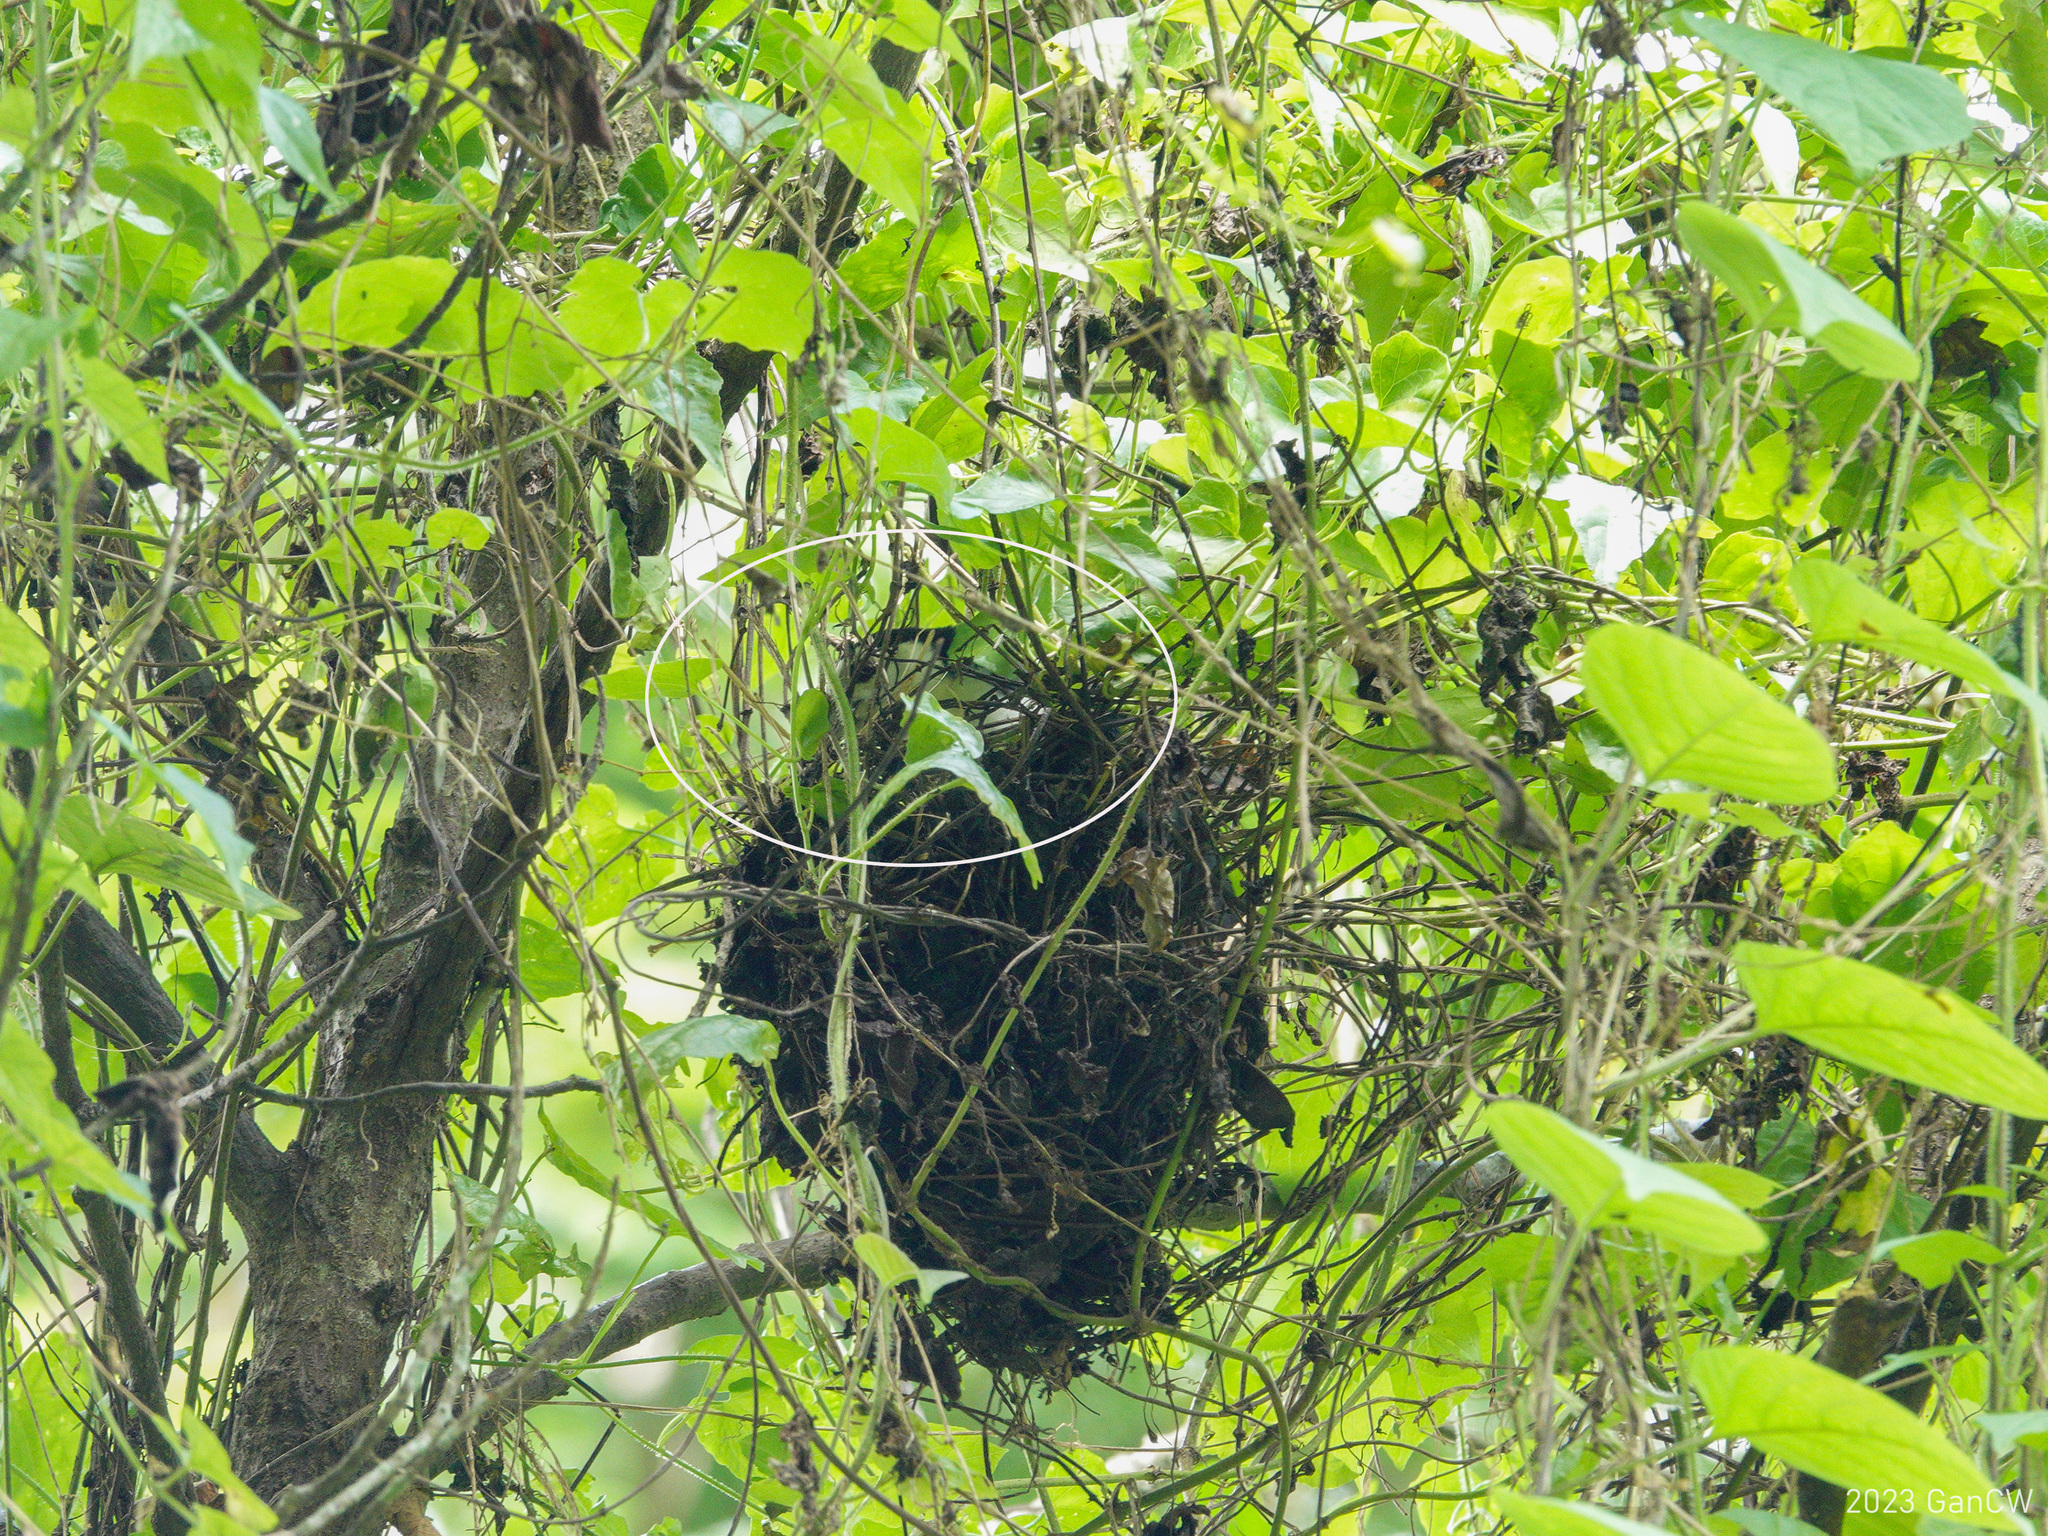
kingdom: Animalia
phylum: Chordata
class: Aves
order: Gruiformes
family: Rallidae
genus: Amaurornis
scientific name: Amaurornis phoenicurus
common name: White-breasted waterhen
